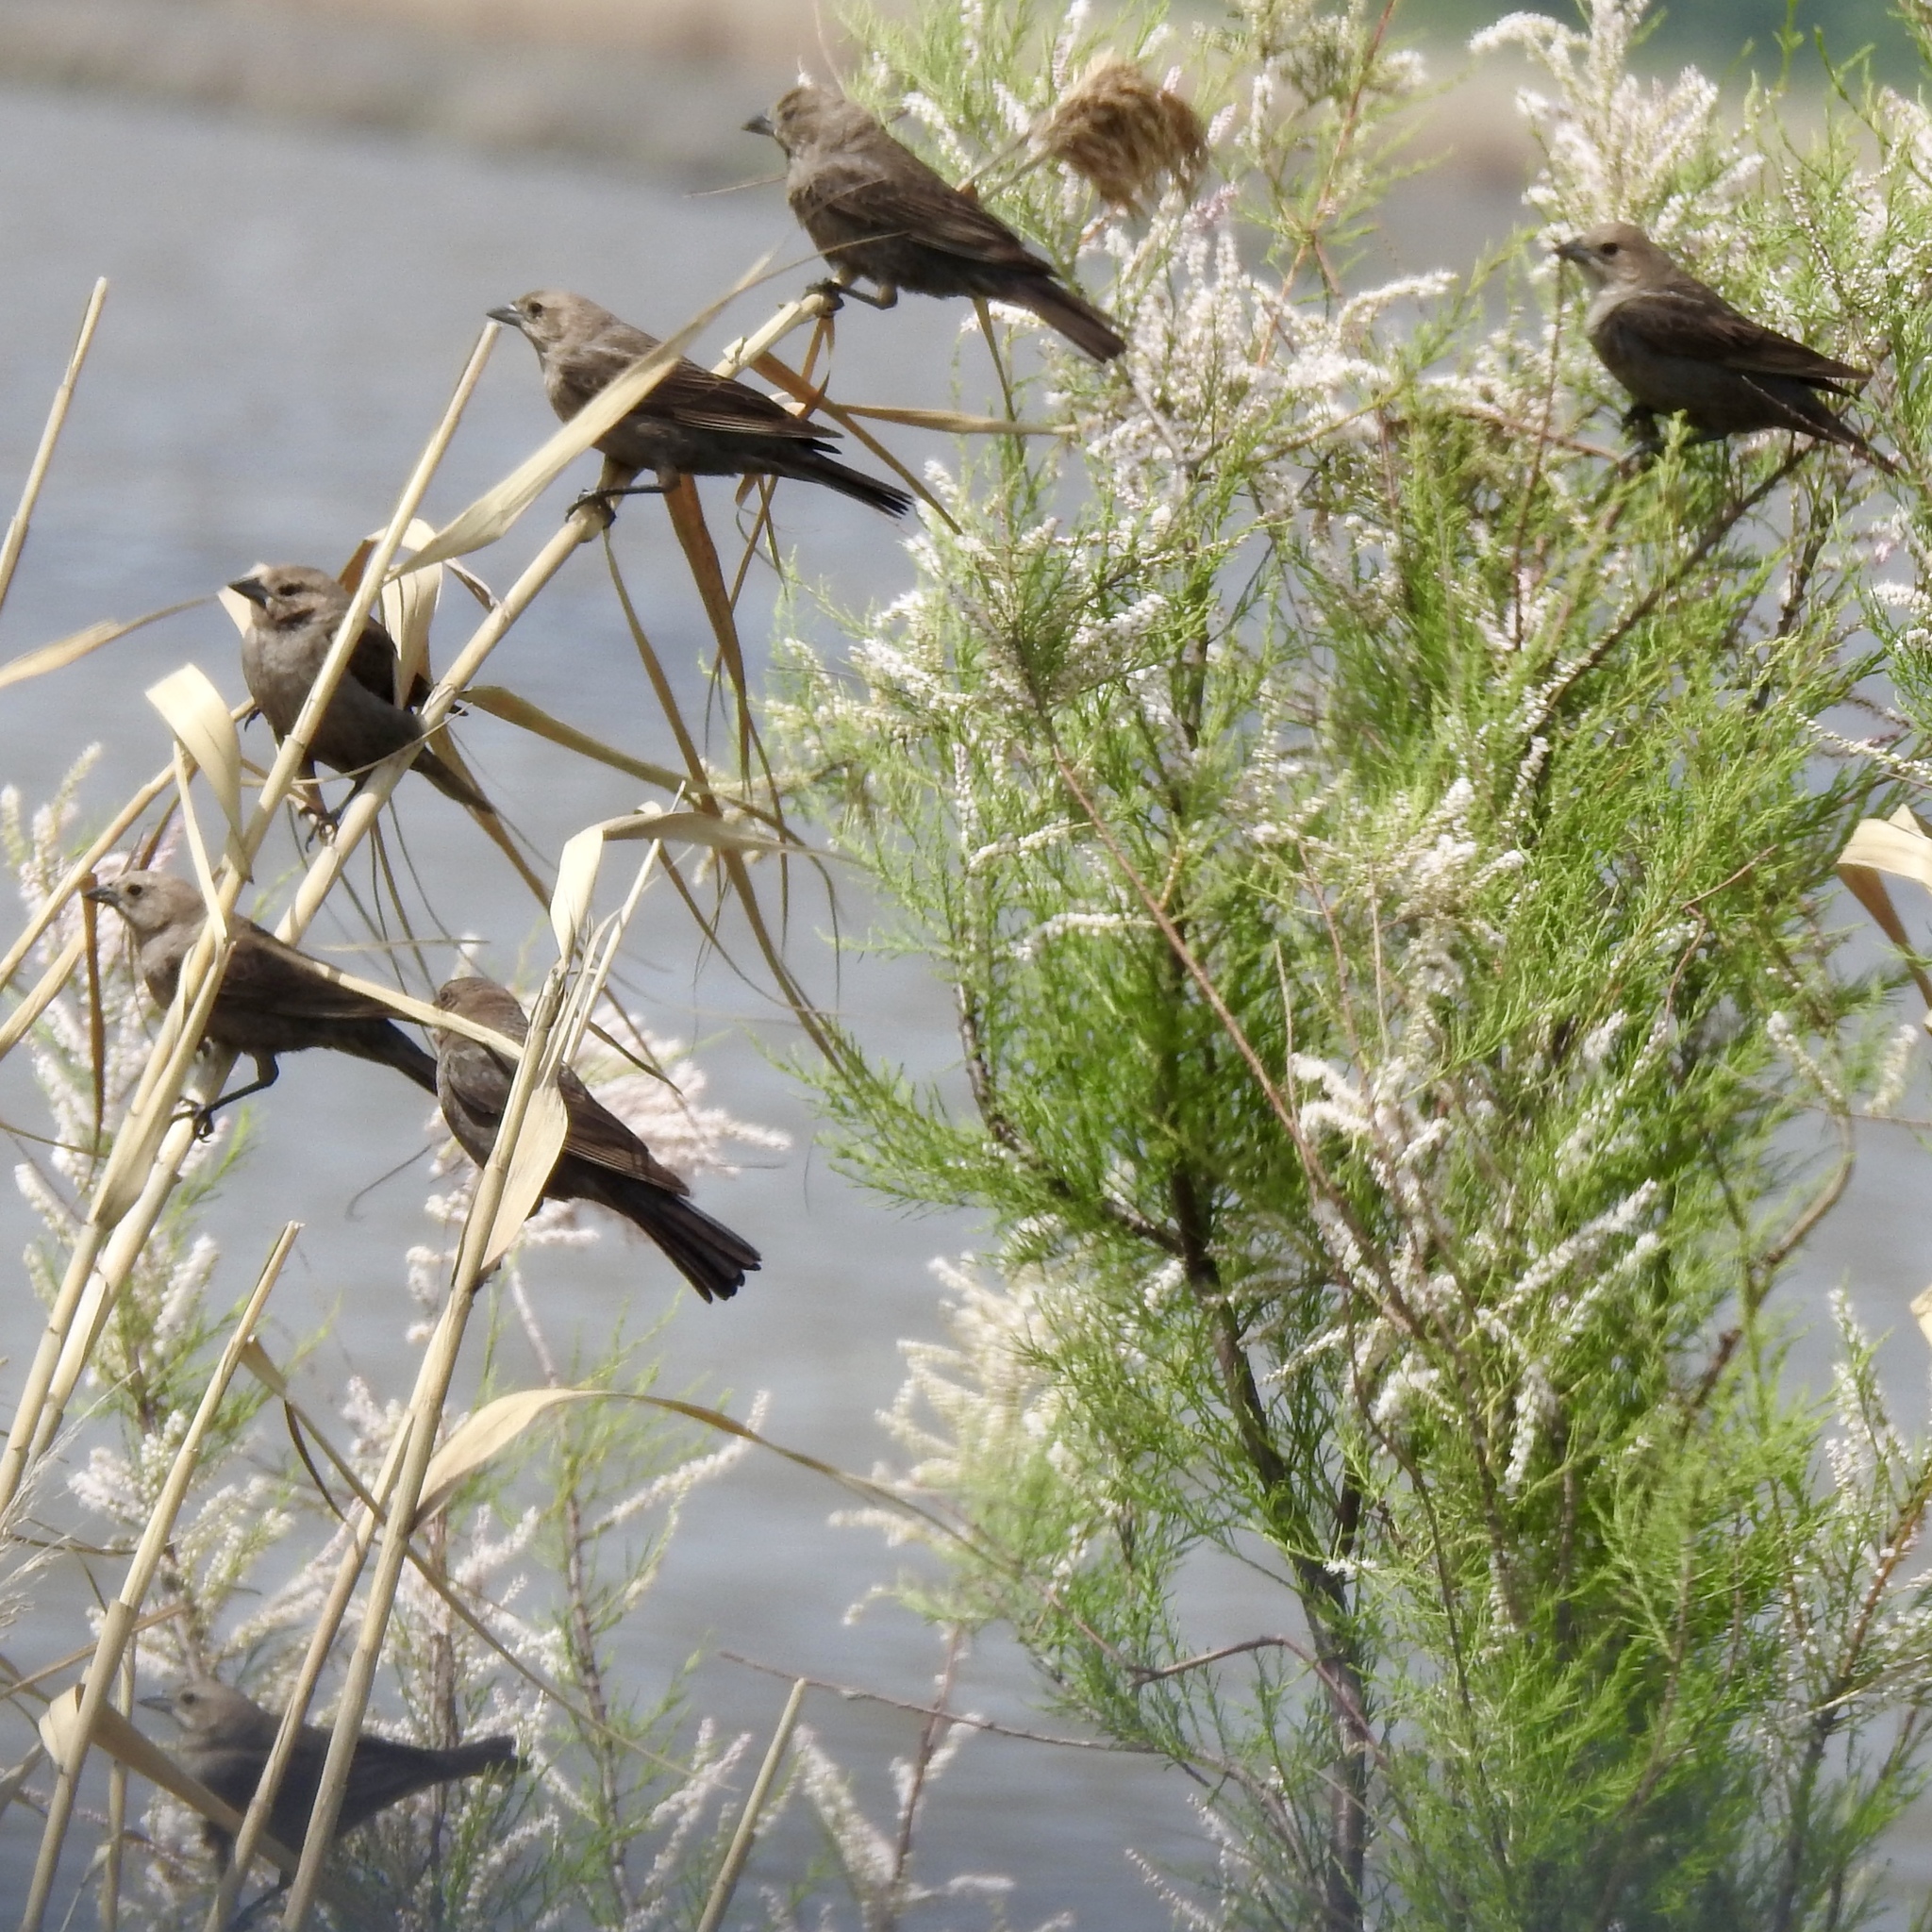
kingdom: Animalia
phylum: Chordata
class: Aves
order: Passeriformes
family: Icteridae
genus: Molothrus
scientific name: Molothrus ater
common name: Brown-headed cowbird
